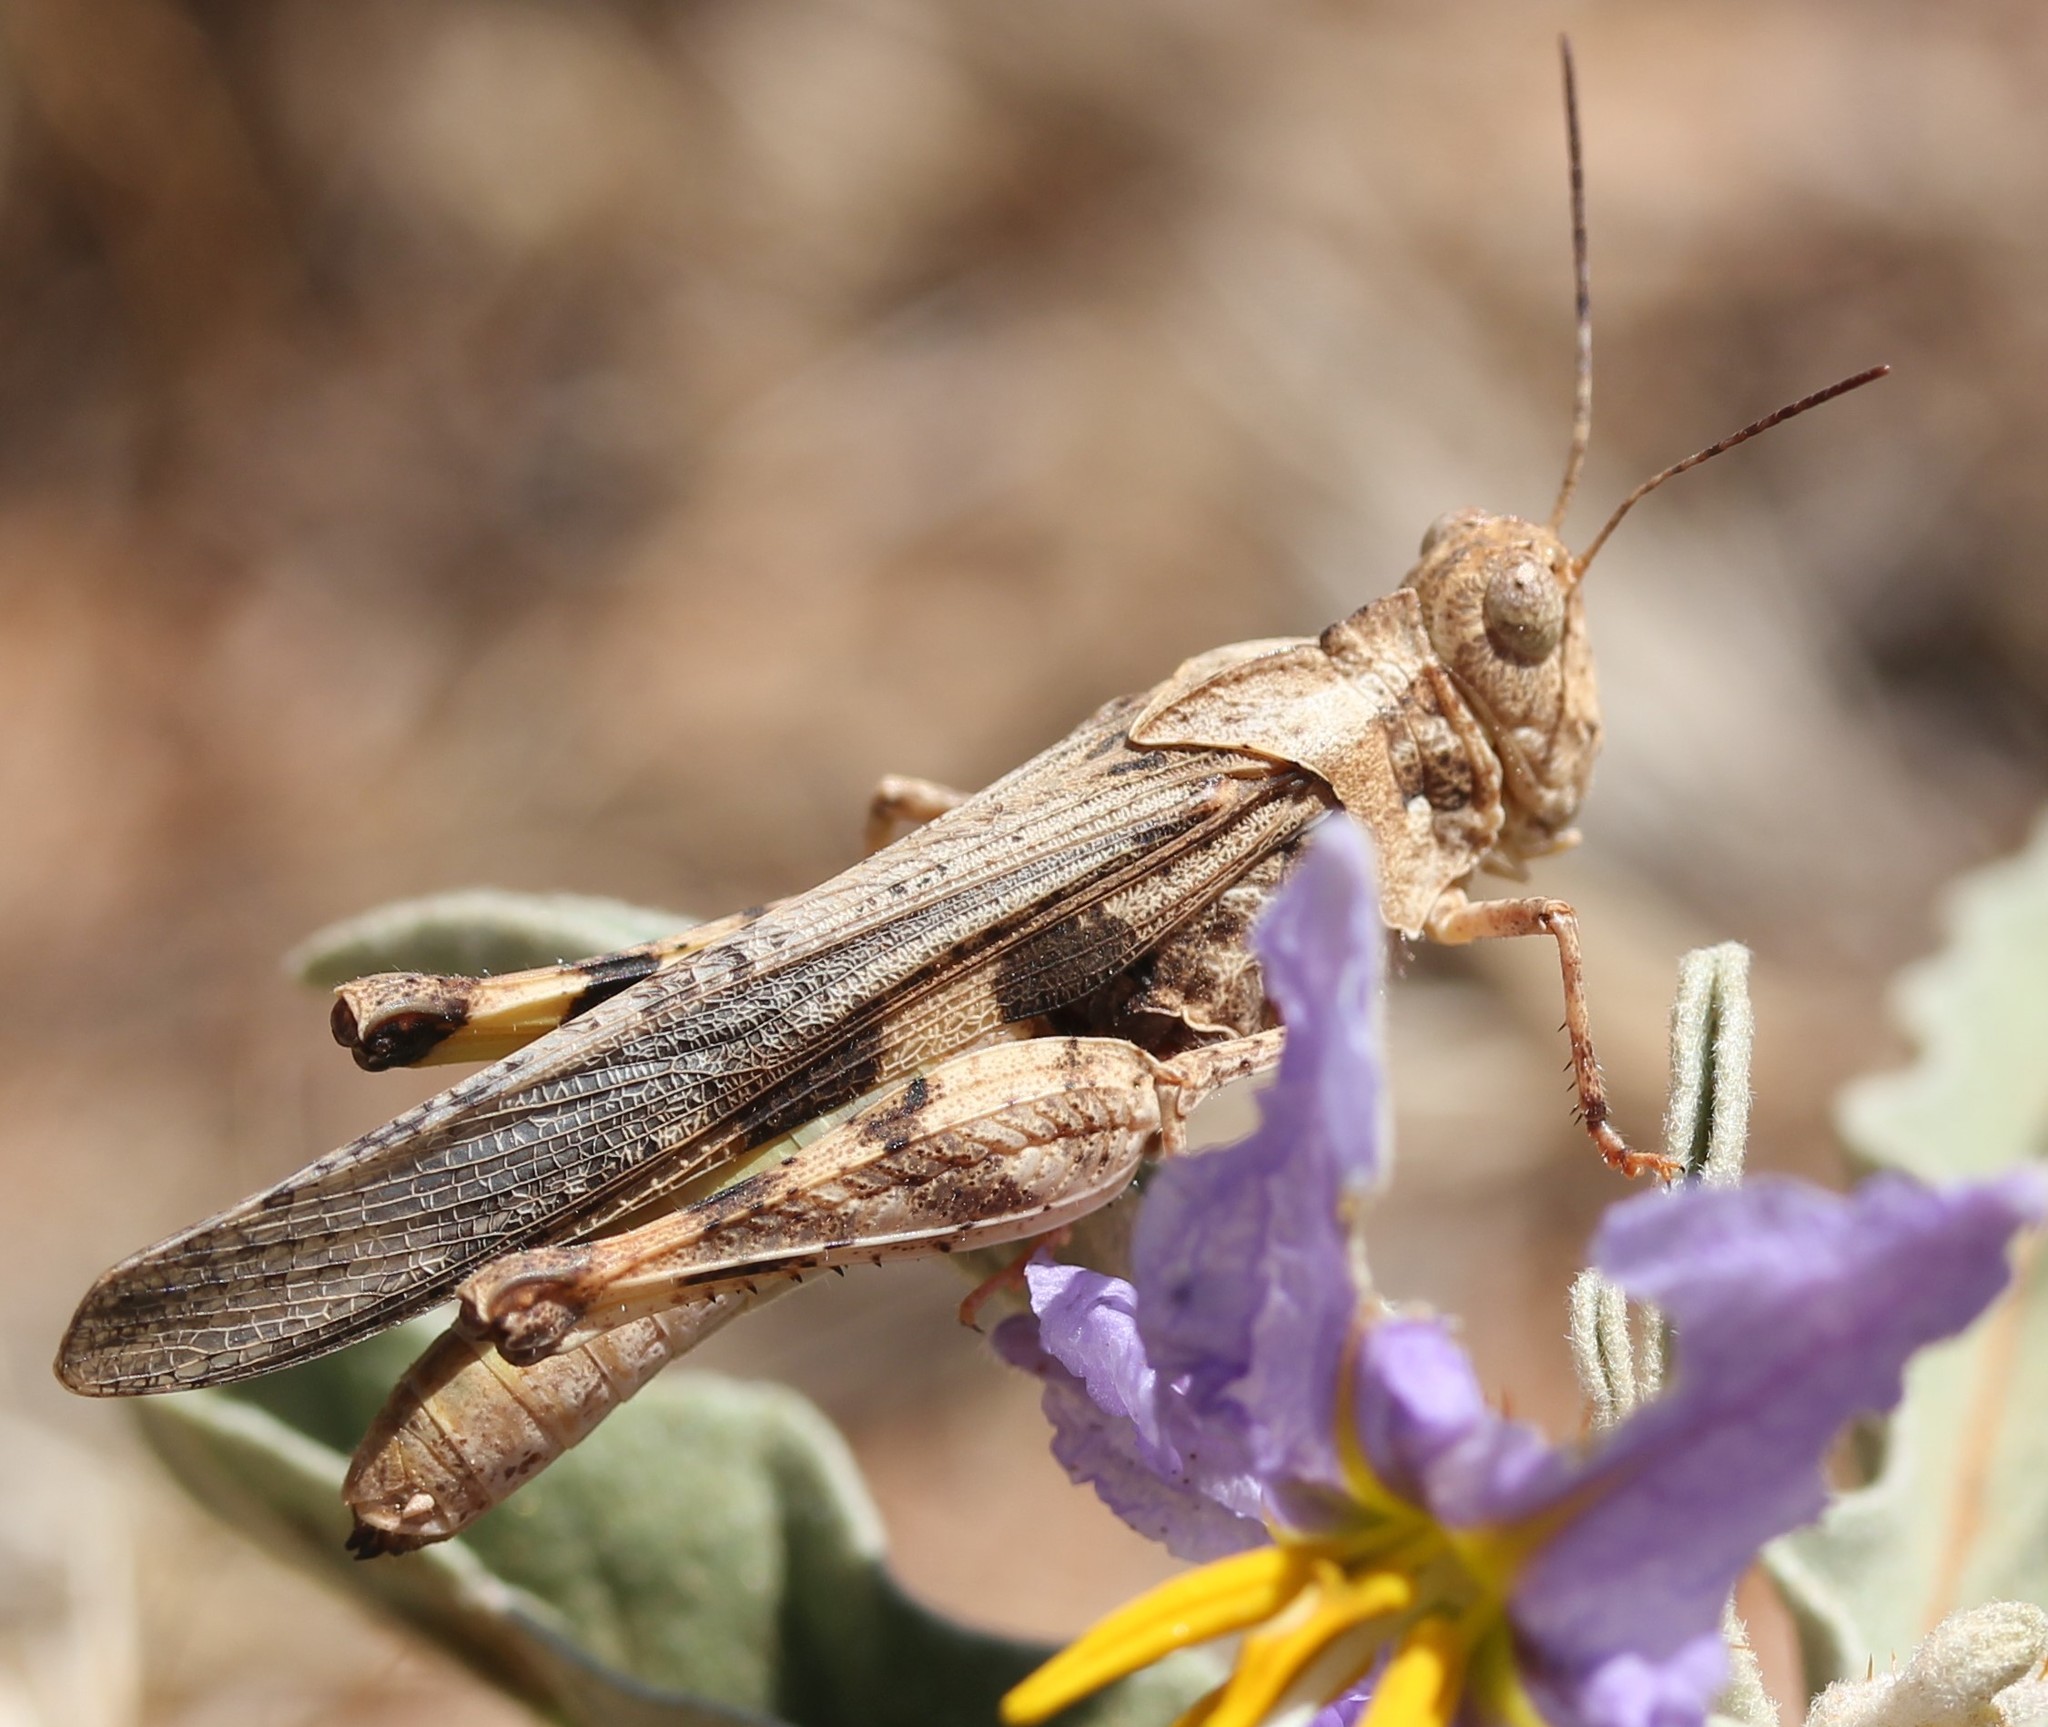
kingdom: Animalia
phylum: Arthropoda
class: Insecta
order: Orthoptera
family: Acrididae
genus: Conozoa
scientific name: Conozoa carinata
